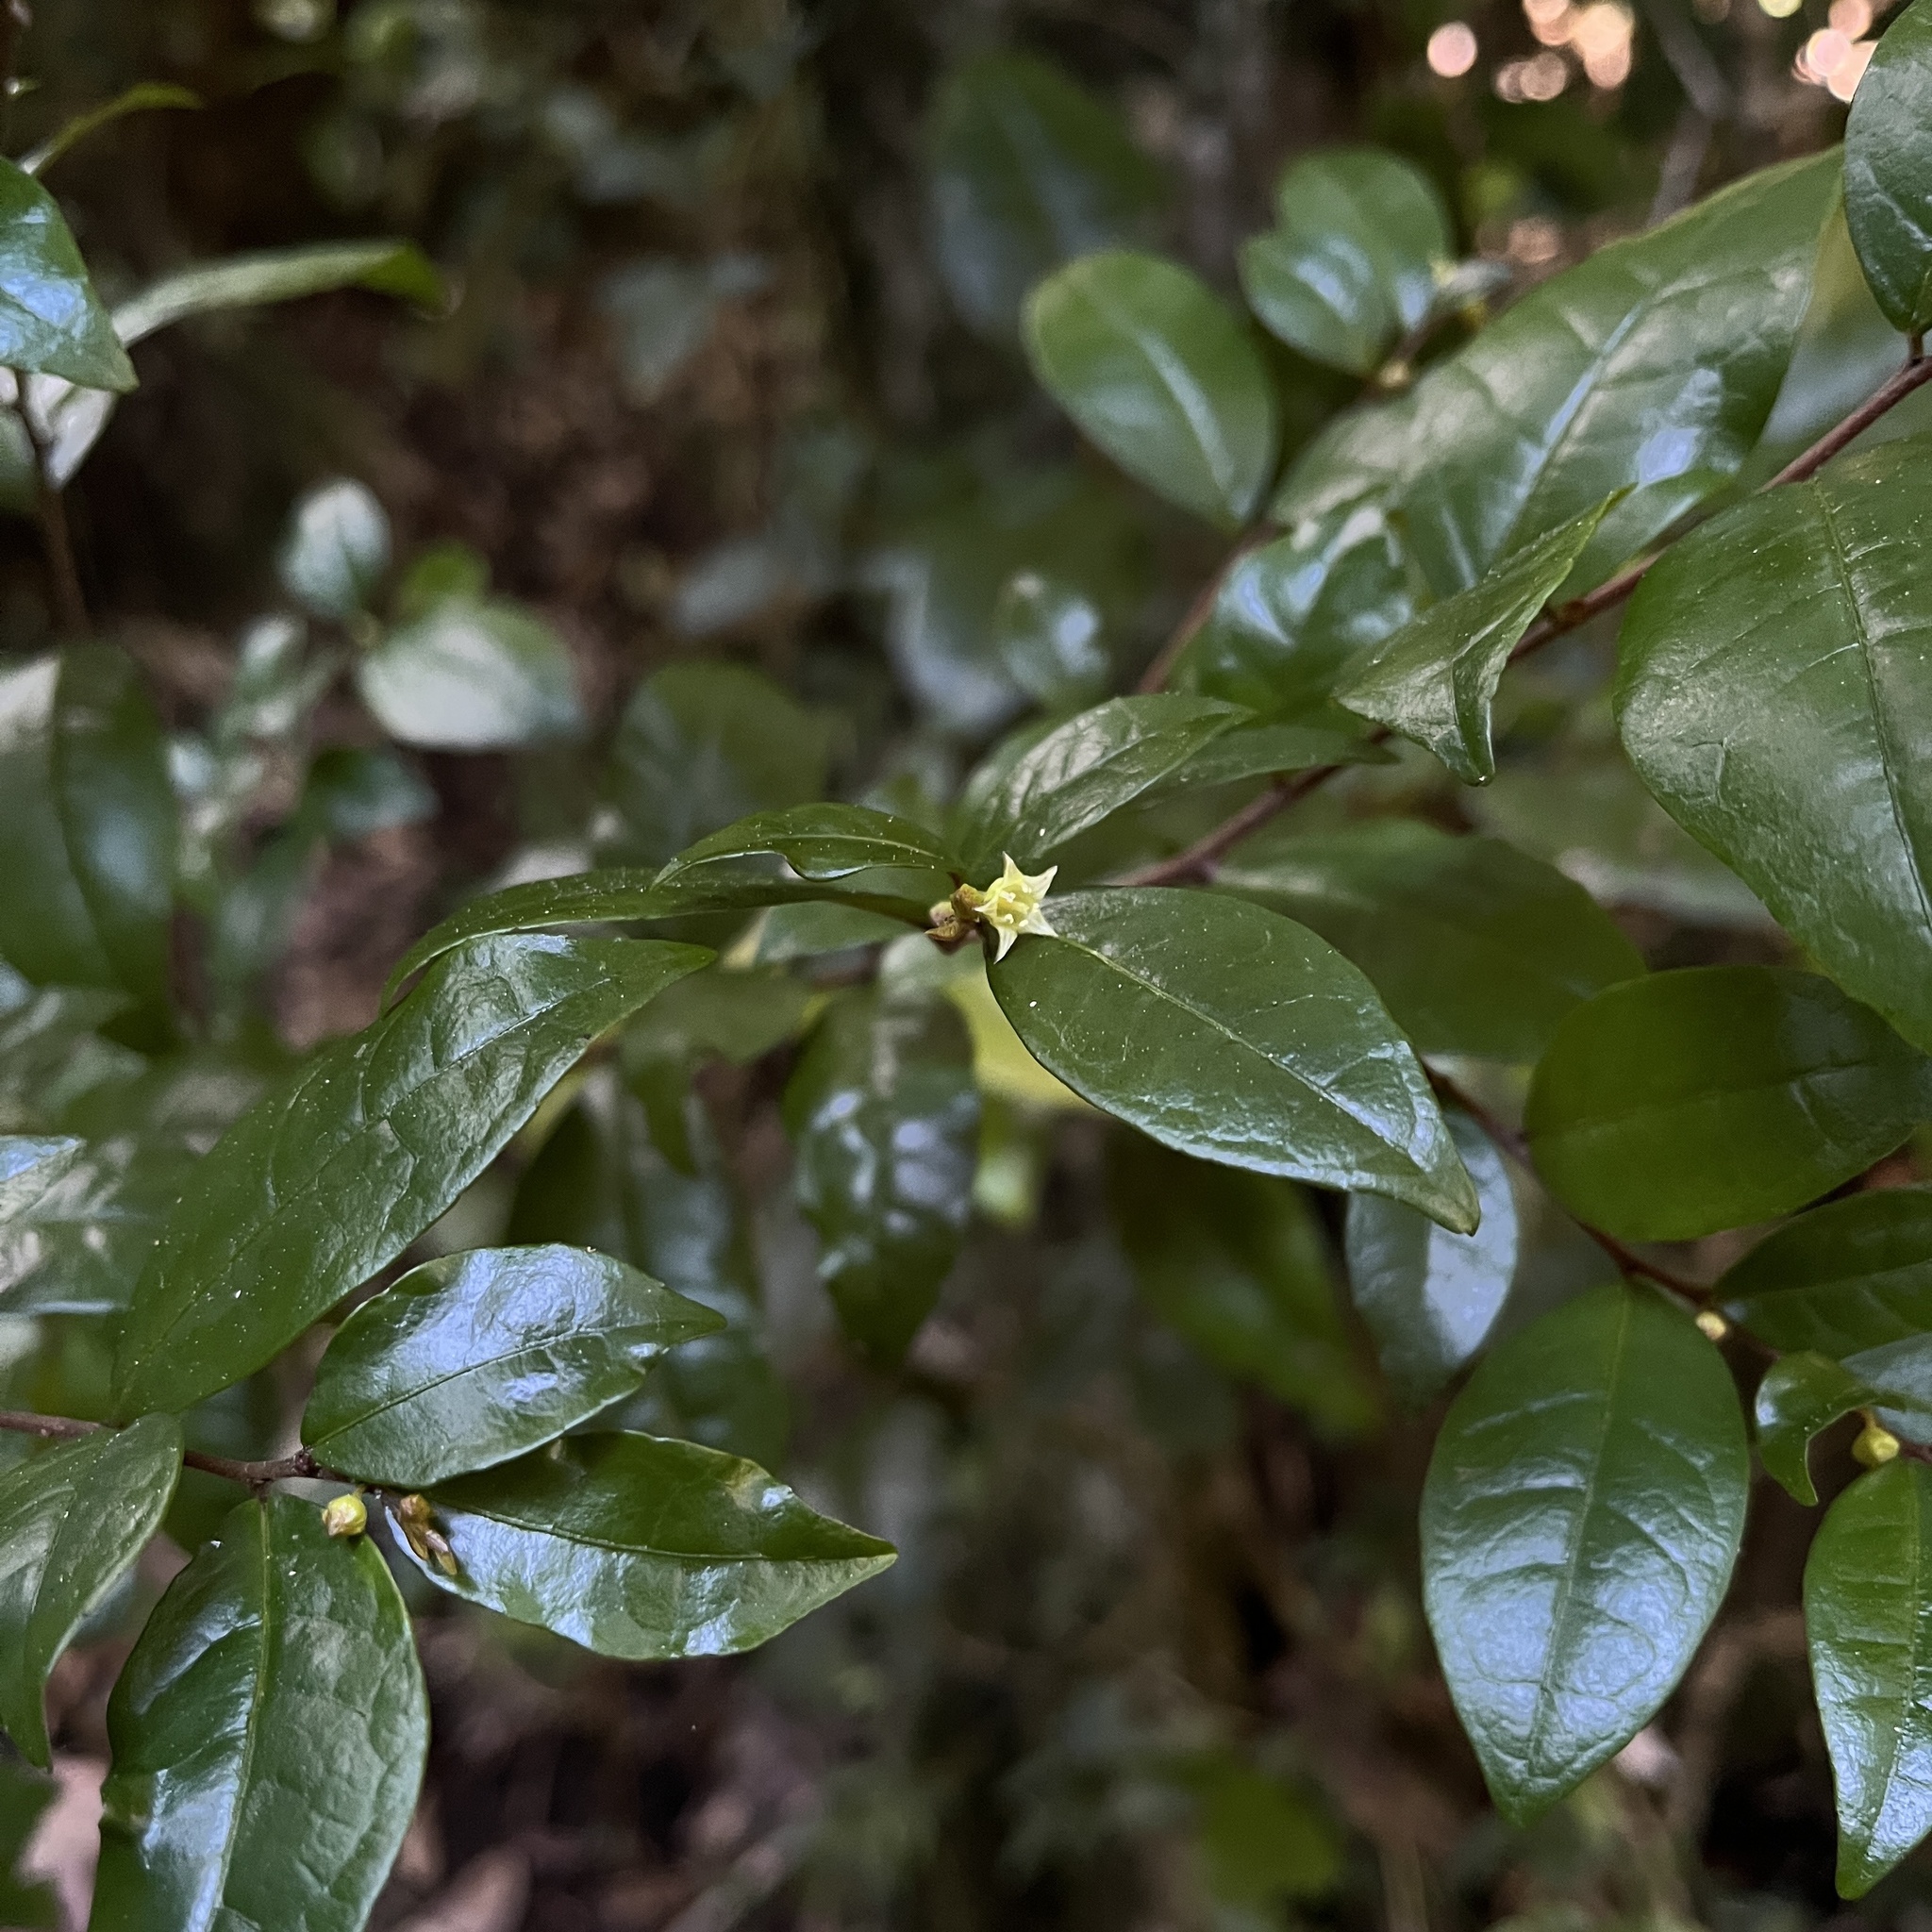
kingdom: Plantae
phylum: Tracheophyta
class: Magnoliopsida
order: Rosales
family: Rhamnaceae
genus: Condalia
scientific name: Condalia maytenoides
